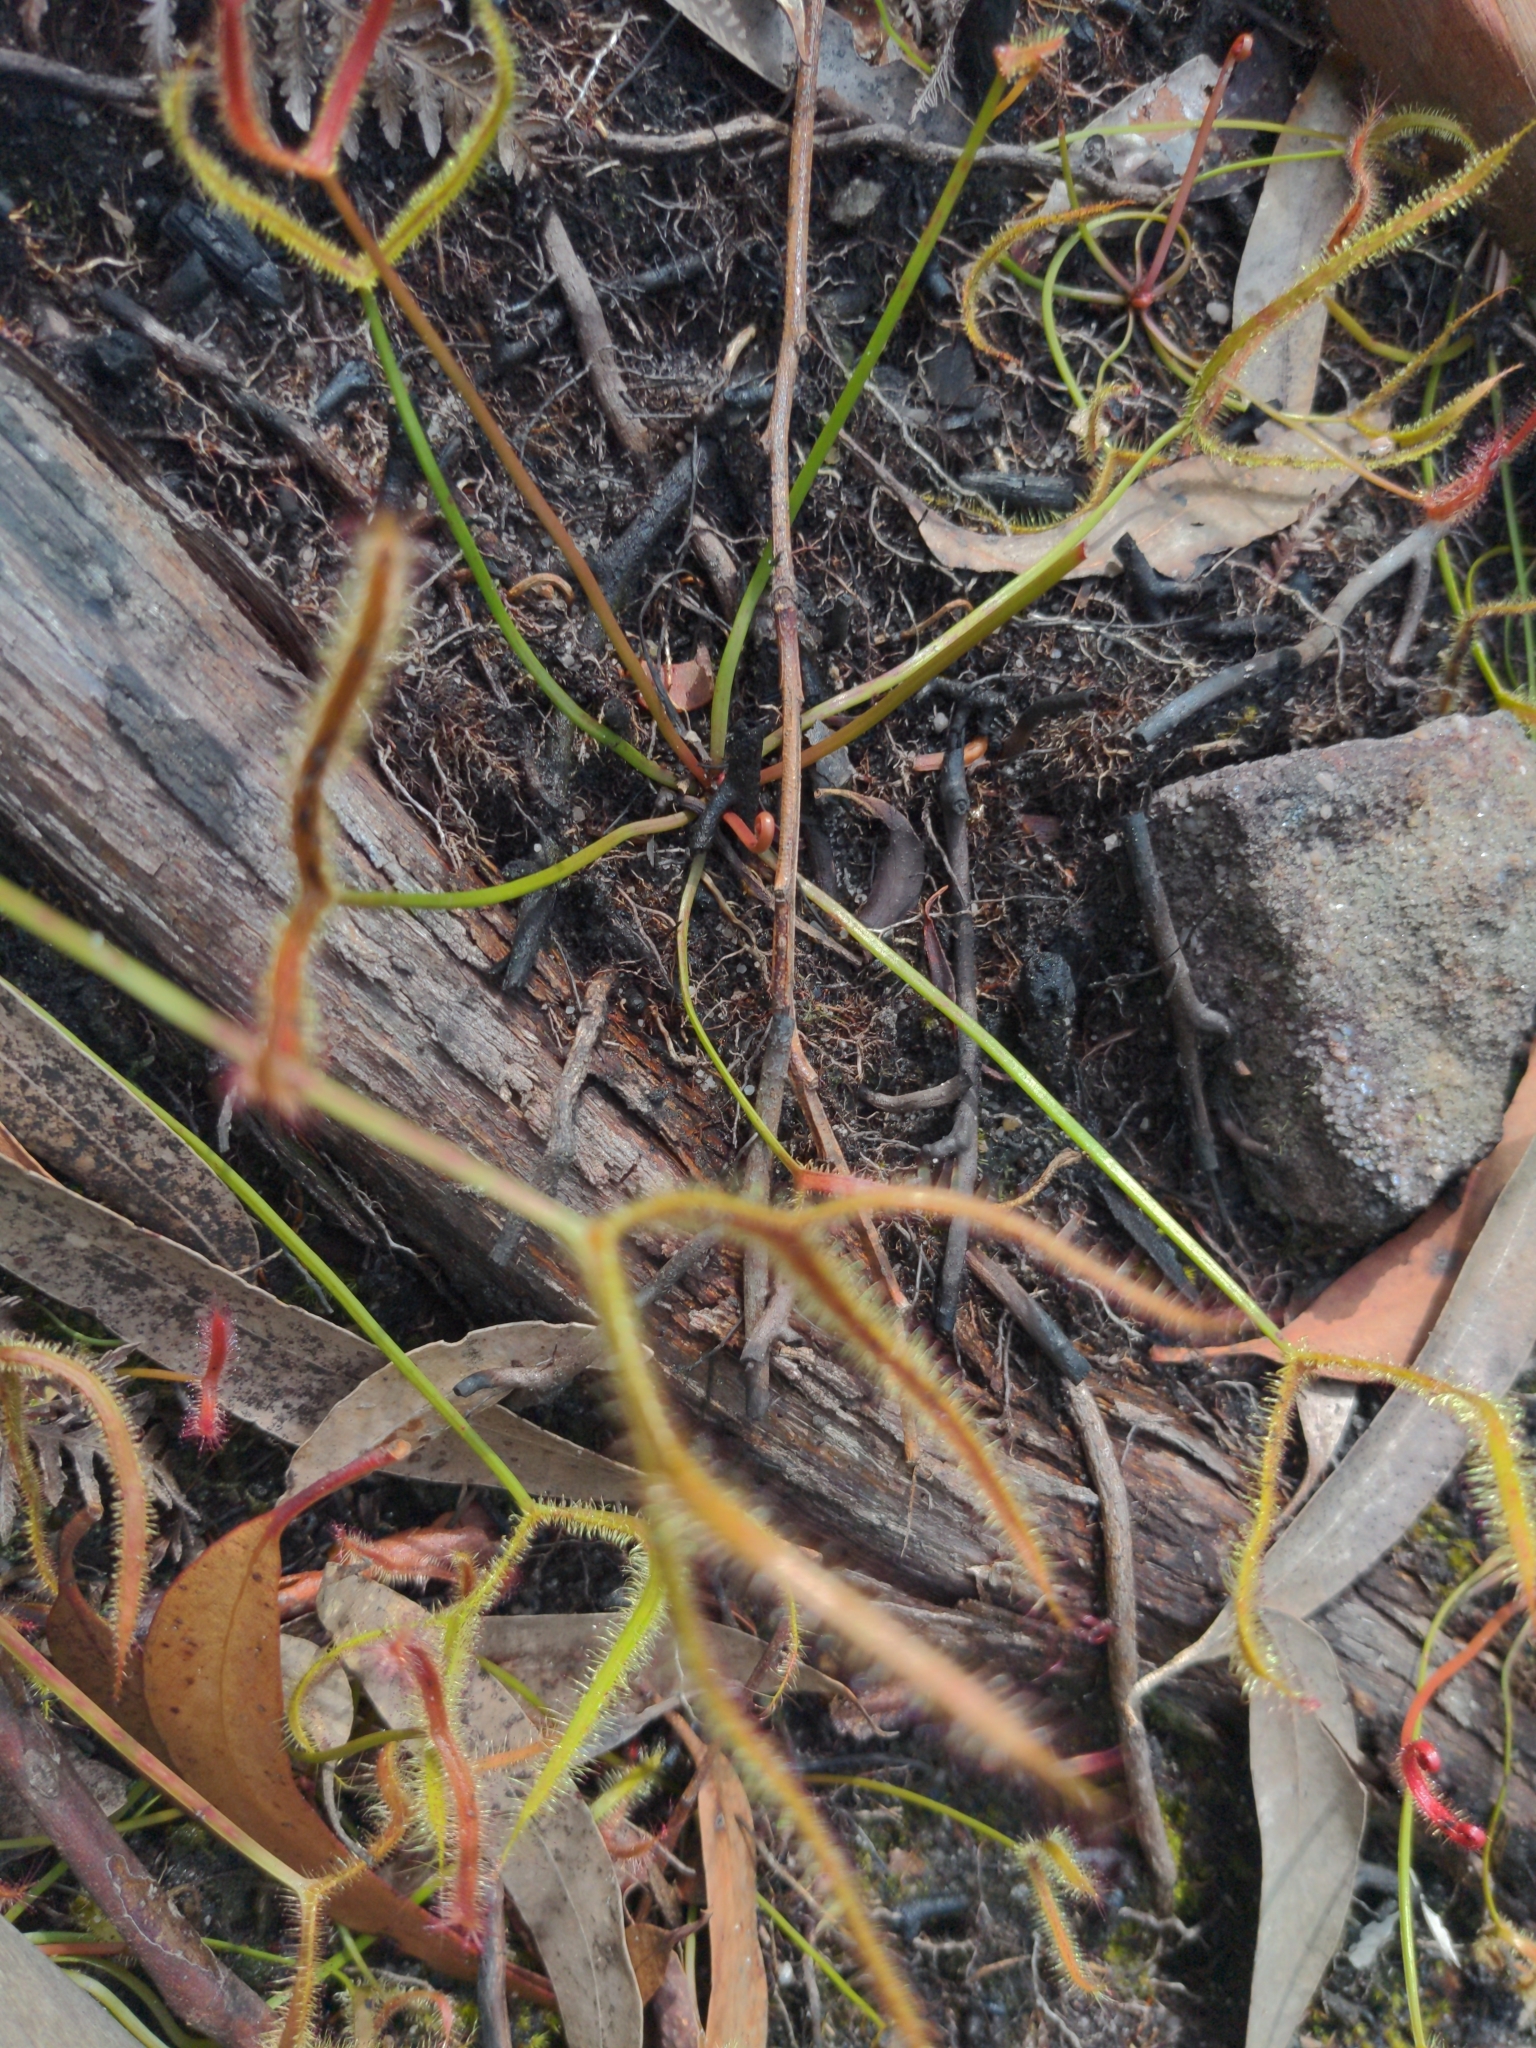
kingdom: Plantae
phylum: Tracheophyta
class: Magnoliopsida
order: Caryophyllales
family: Droseraceae
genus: Drosera
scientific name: Drosera binata
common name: Forked sundew
